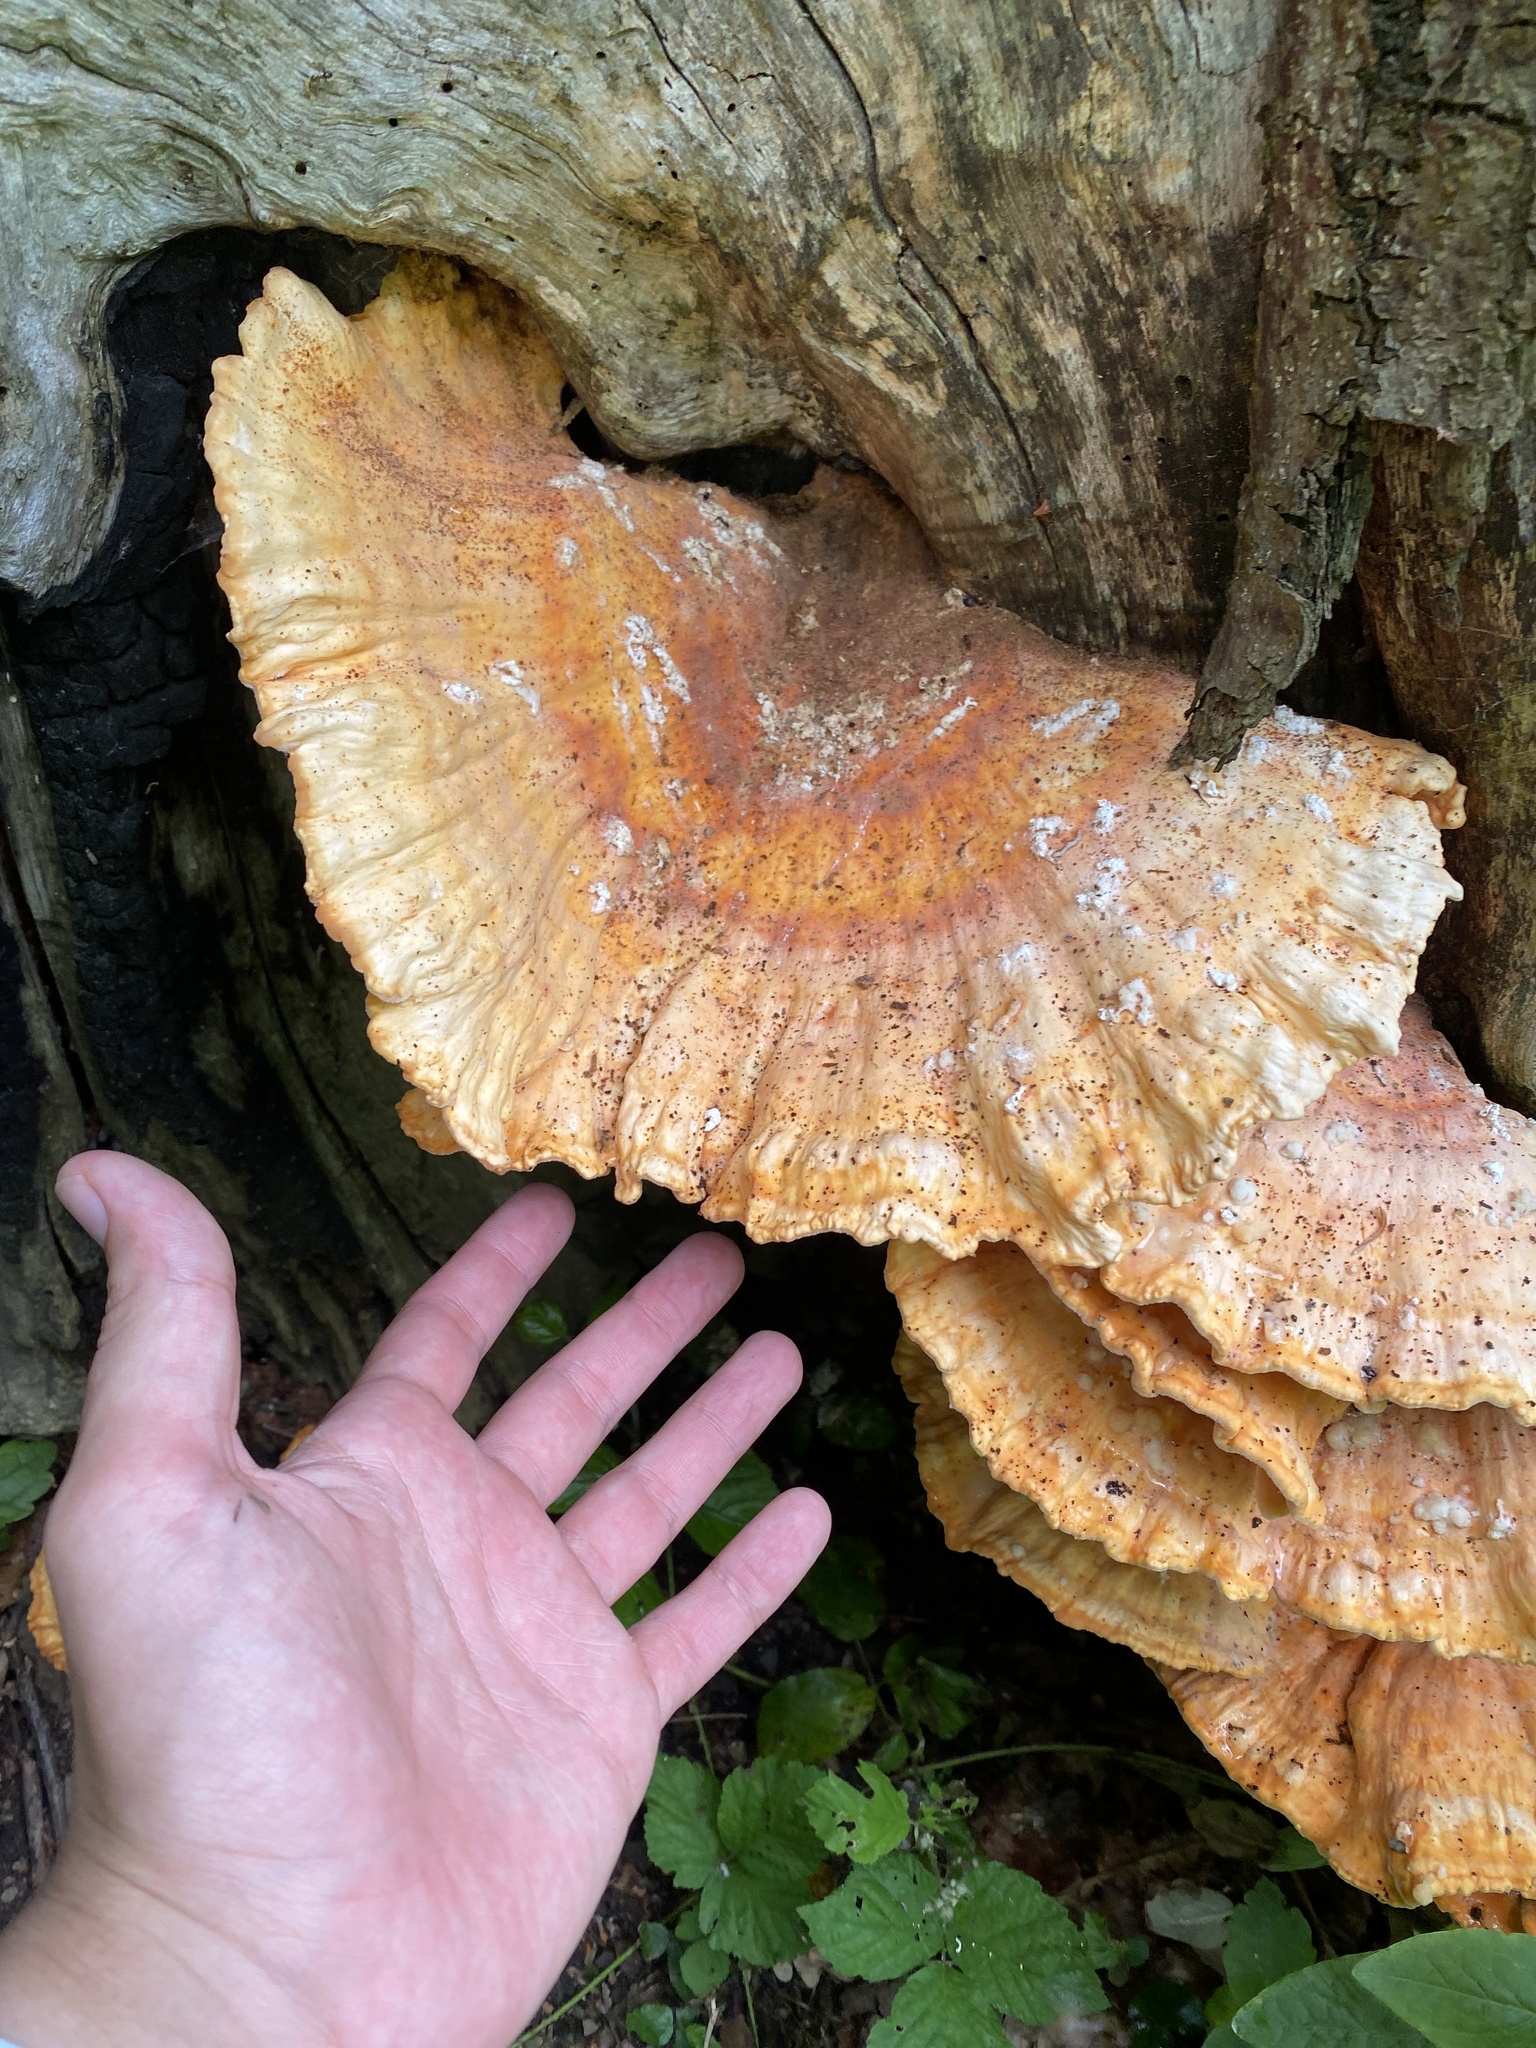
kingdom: Fungi
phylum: Basidiomycota
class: Agaricomycetes
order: Polyporales
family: Laetiporaceae
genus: Laetiporus
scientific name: Laetiporus sulphureus
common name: Chicken of the woods
